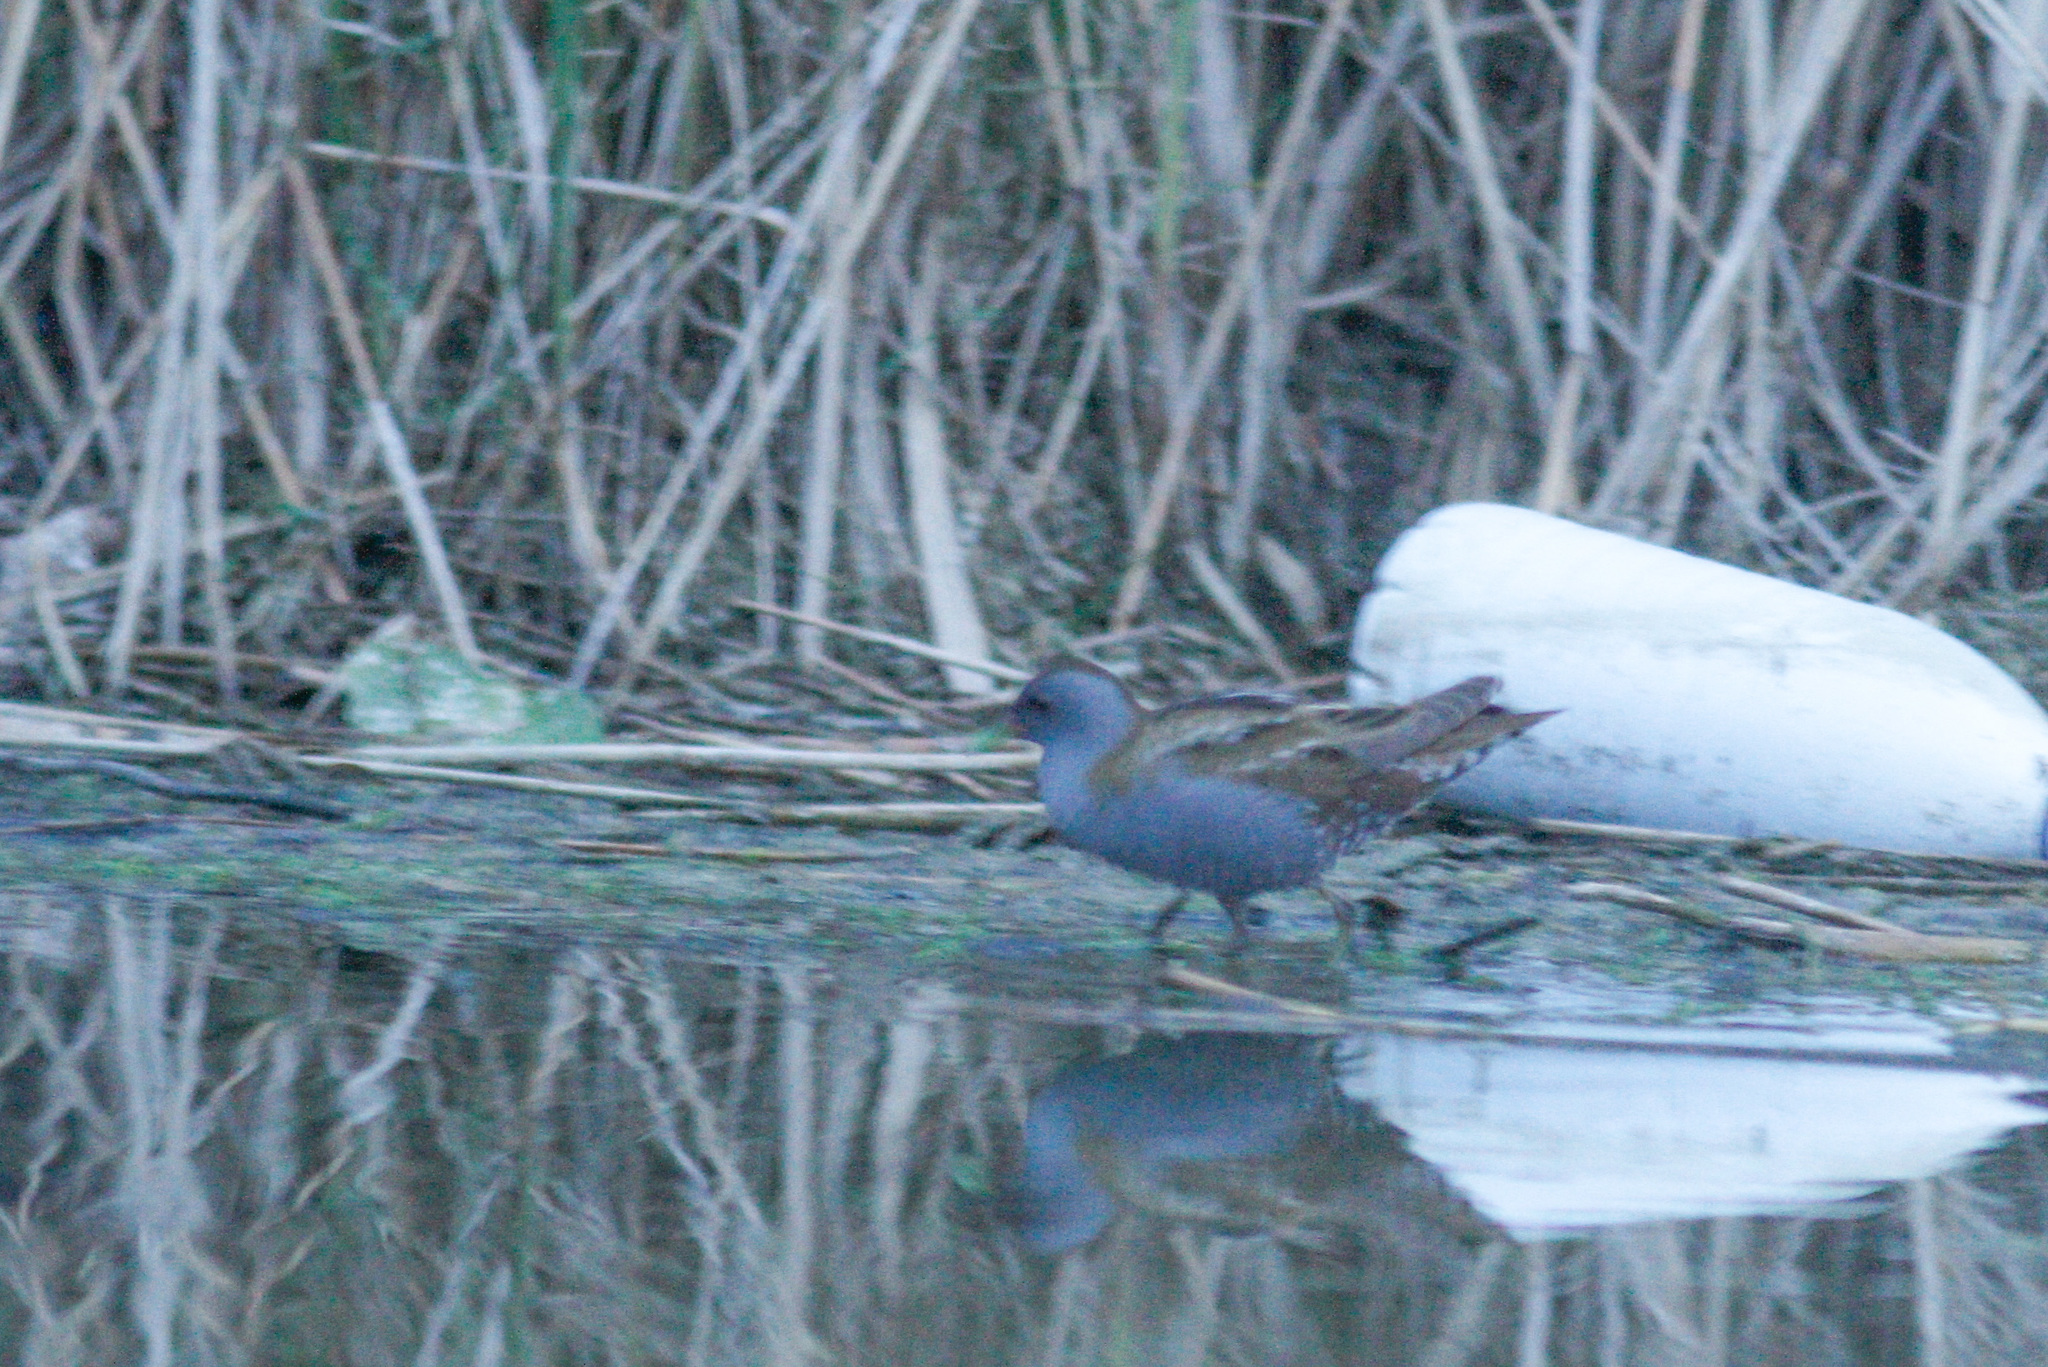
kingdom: Animalia
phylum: Chordata
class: Aves
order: Gruiformes
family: Rallidae
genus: Porzana
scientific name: Porzana parva
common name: Little crake
